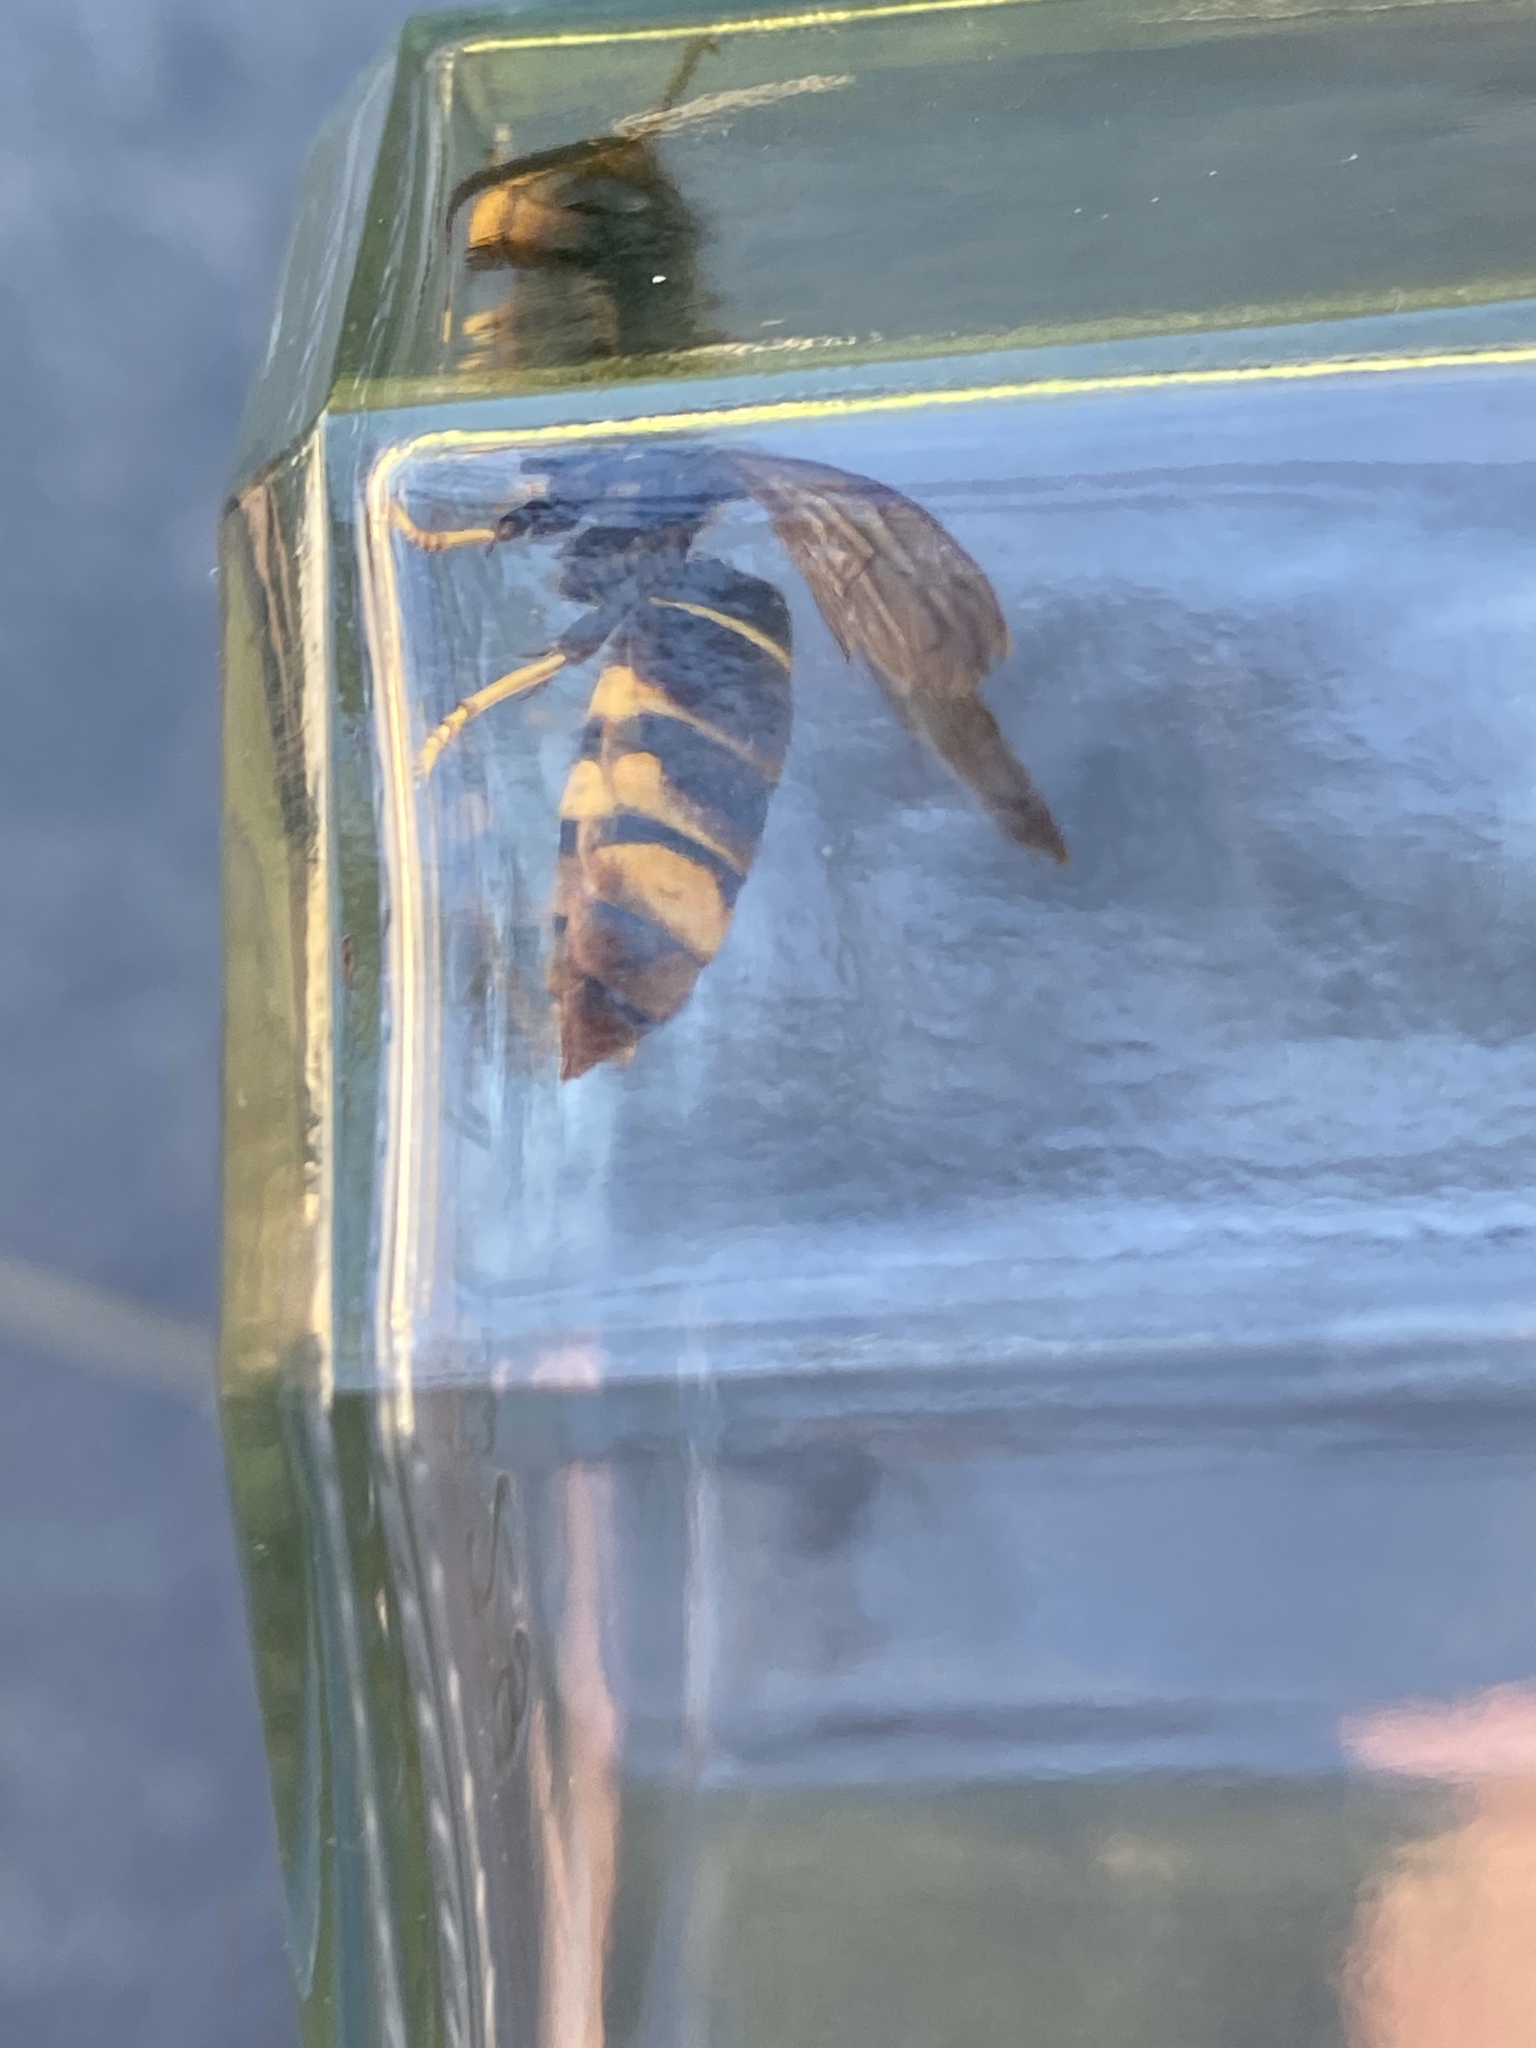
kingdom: Animalia
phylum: Arthropoda
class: Insecta
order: Hymenoptera
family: Vespidae
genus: Vespa
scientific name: Vespa velutina
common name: Asian hornet
